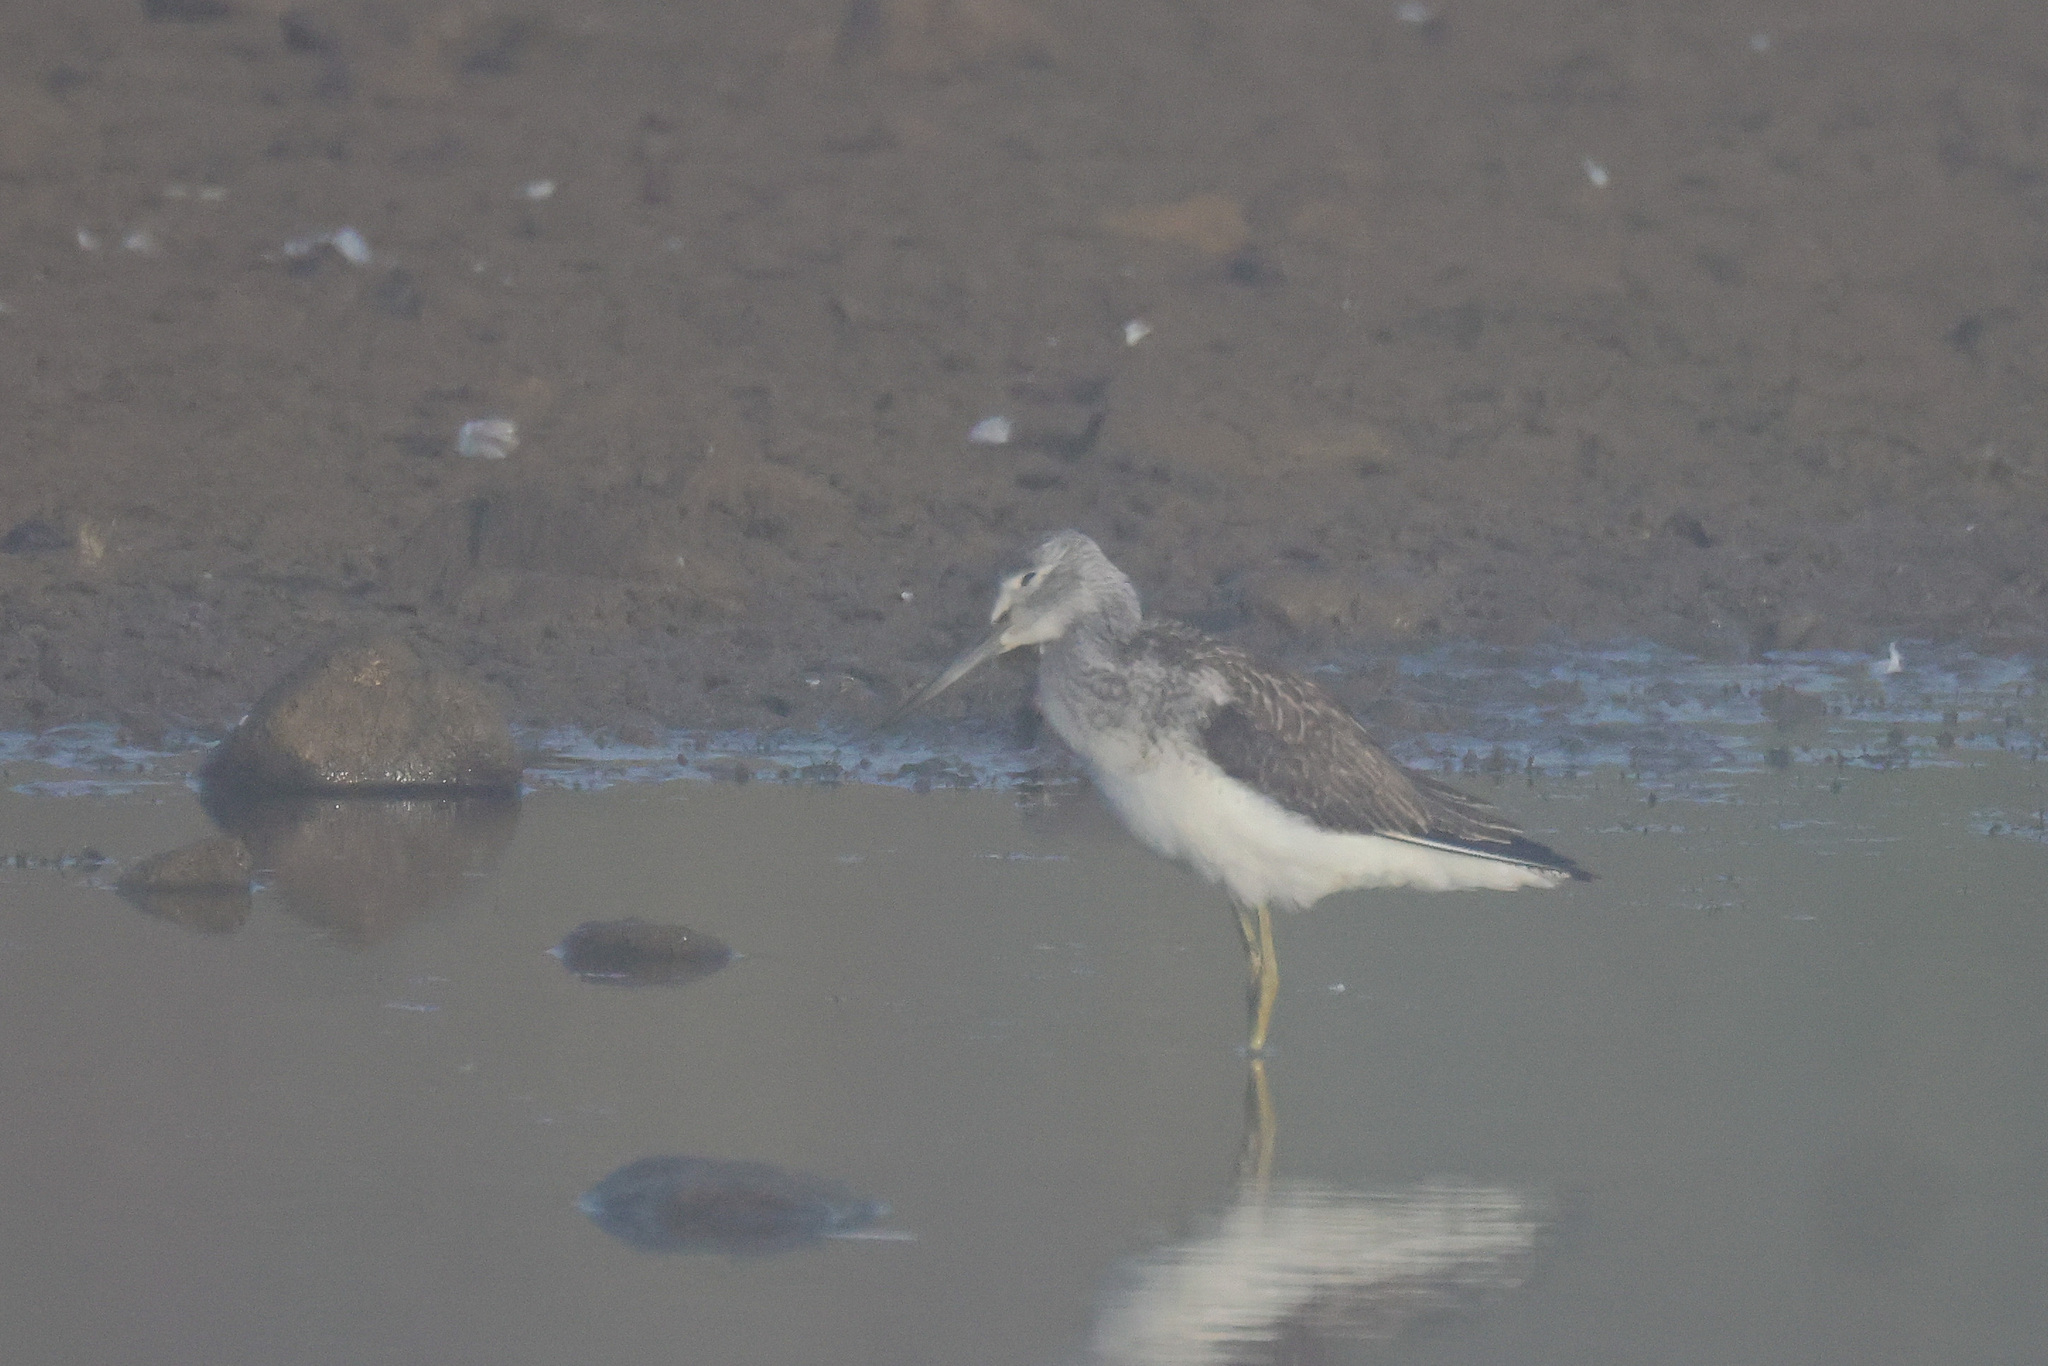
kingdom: Animalia
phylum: Chordata
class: Aves
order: Charadriiformes
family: Scolopacidae
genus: Tringa
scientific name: Tringa nebularia
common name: Common greenshank
